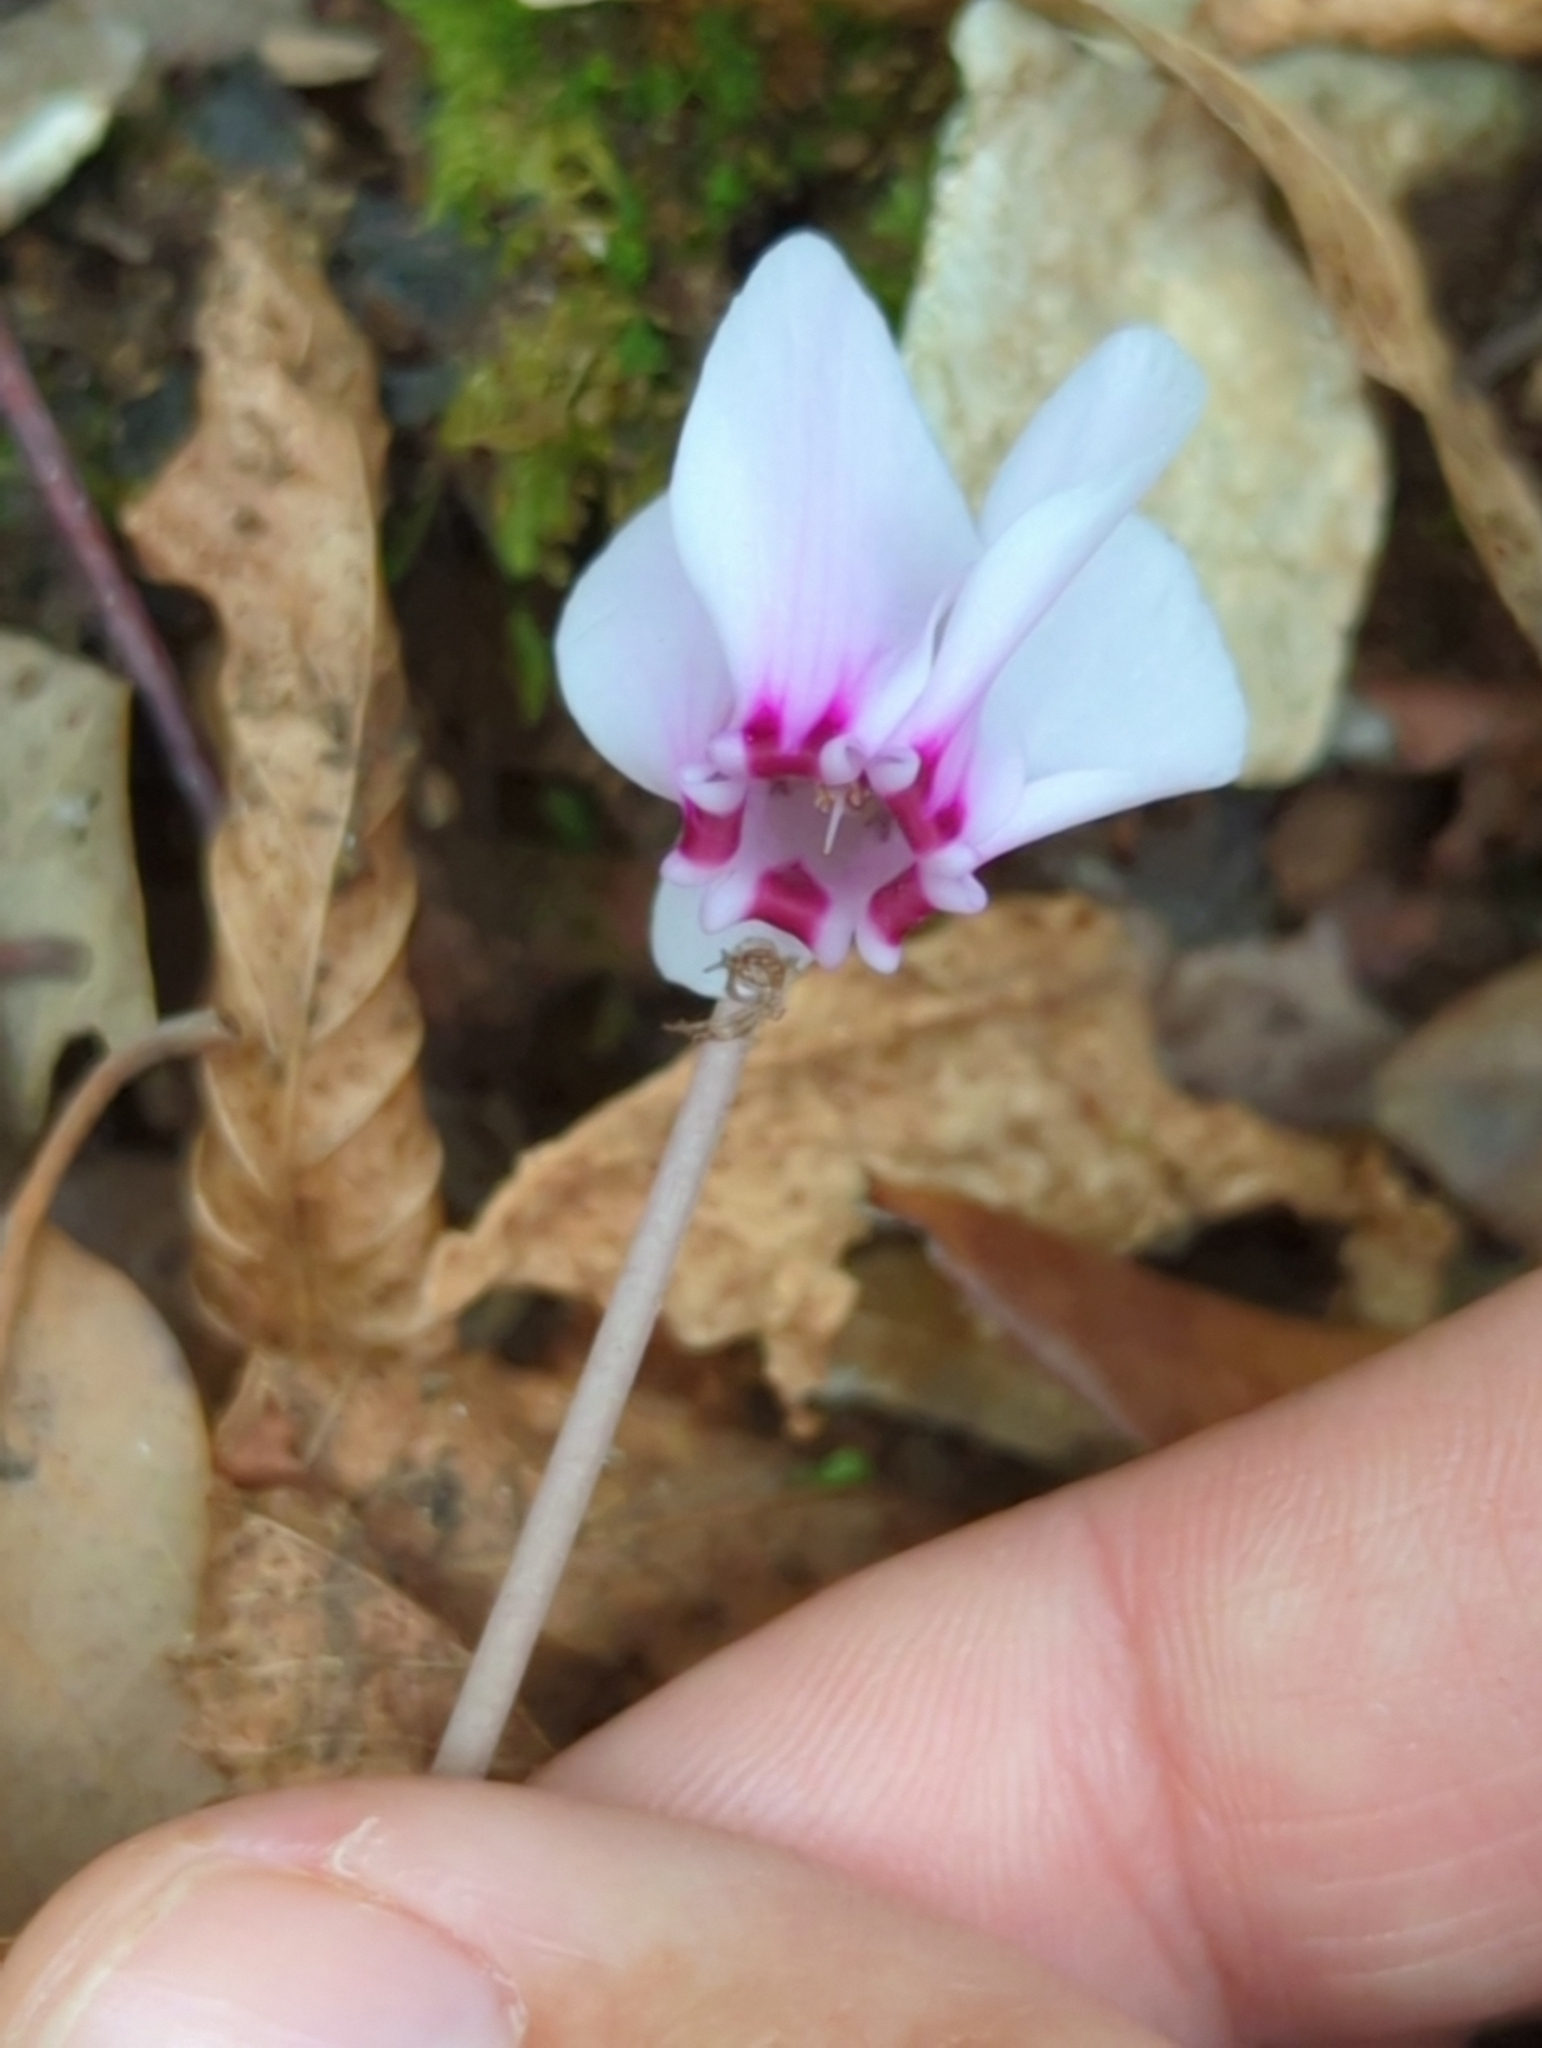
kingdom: Plantae
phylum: Tracheophyta
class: Magnoliopsida
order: Ericales
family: Primulaceae
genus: Cyclamen
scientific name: Cyclamen hederifolium
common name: Sowbread
